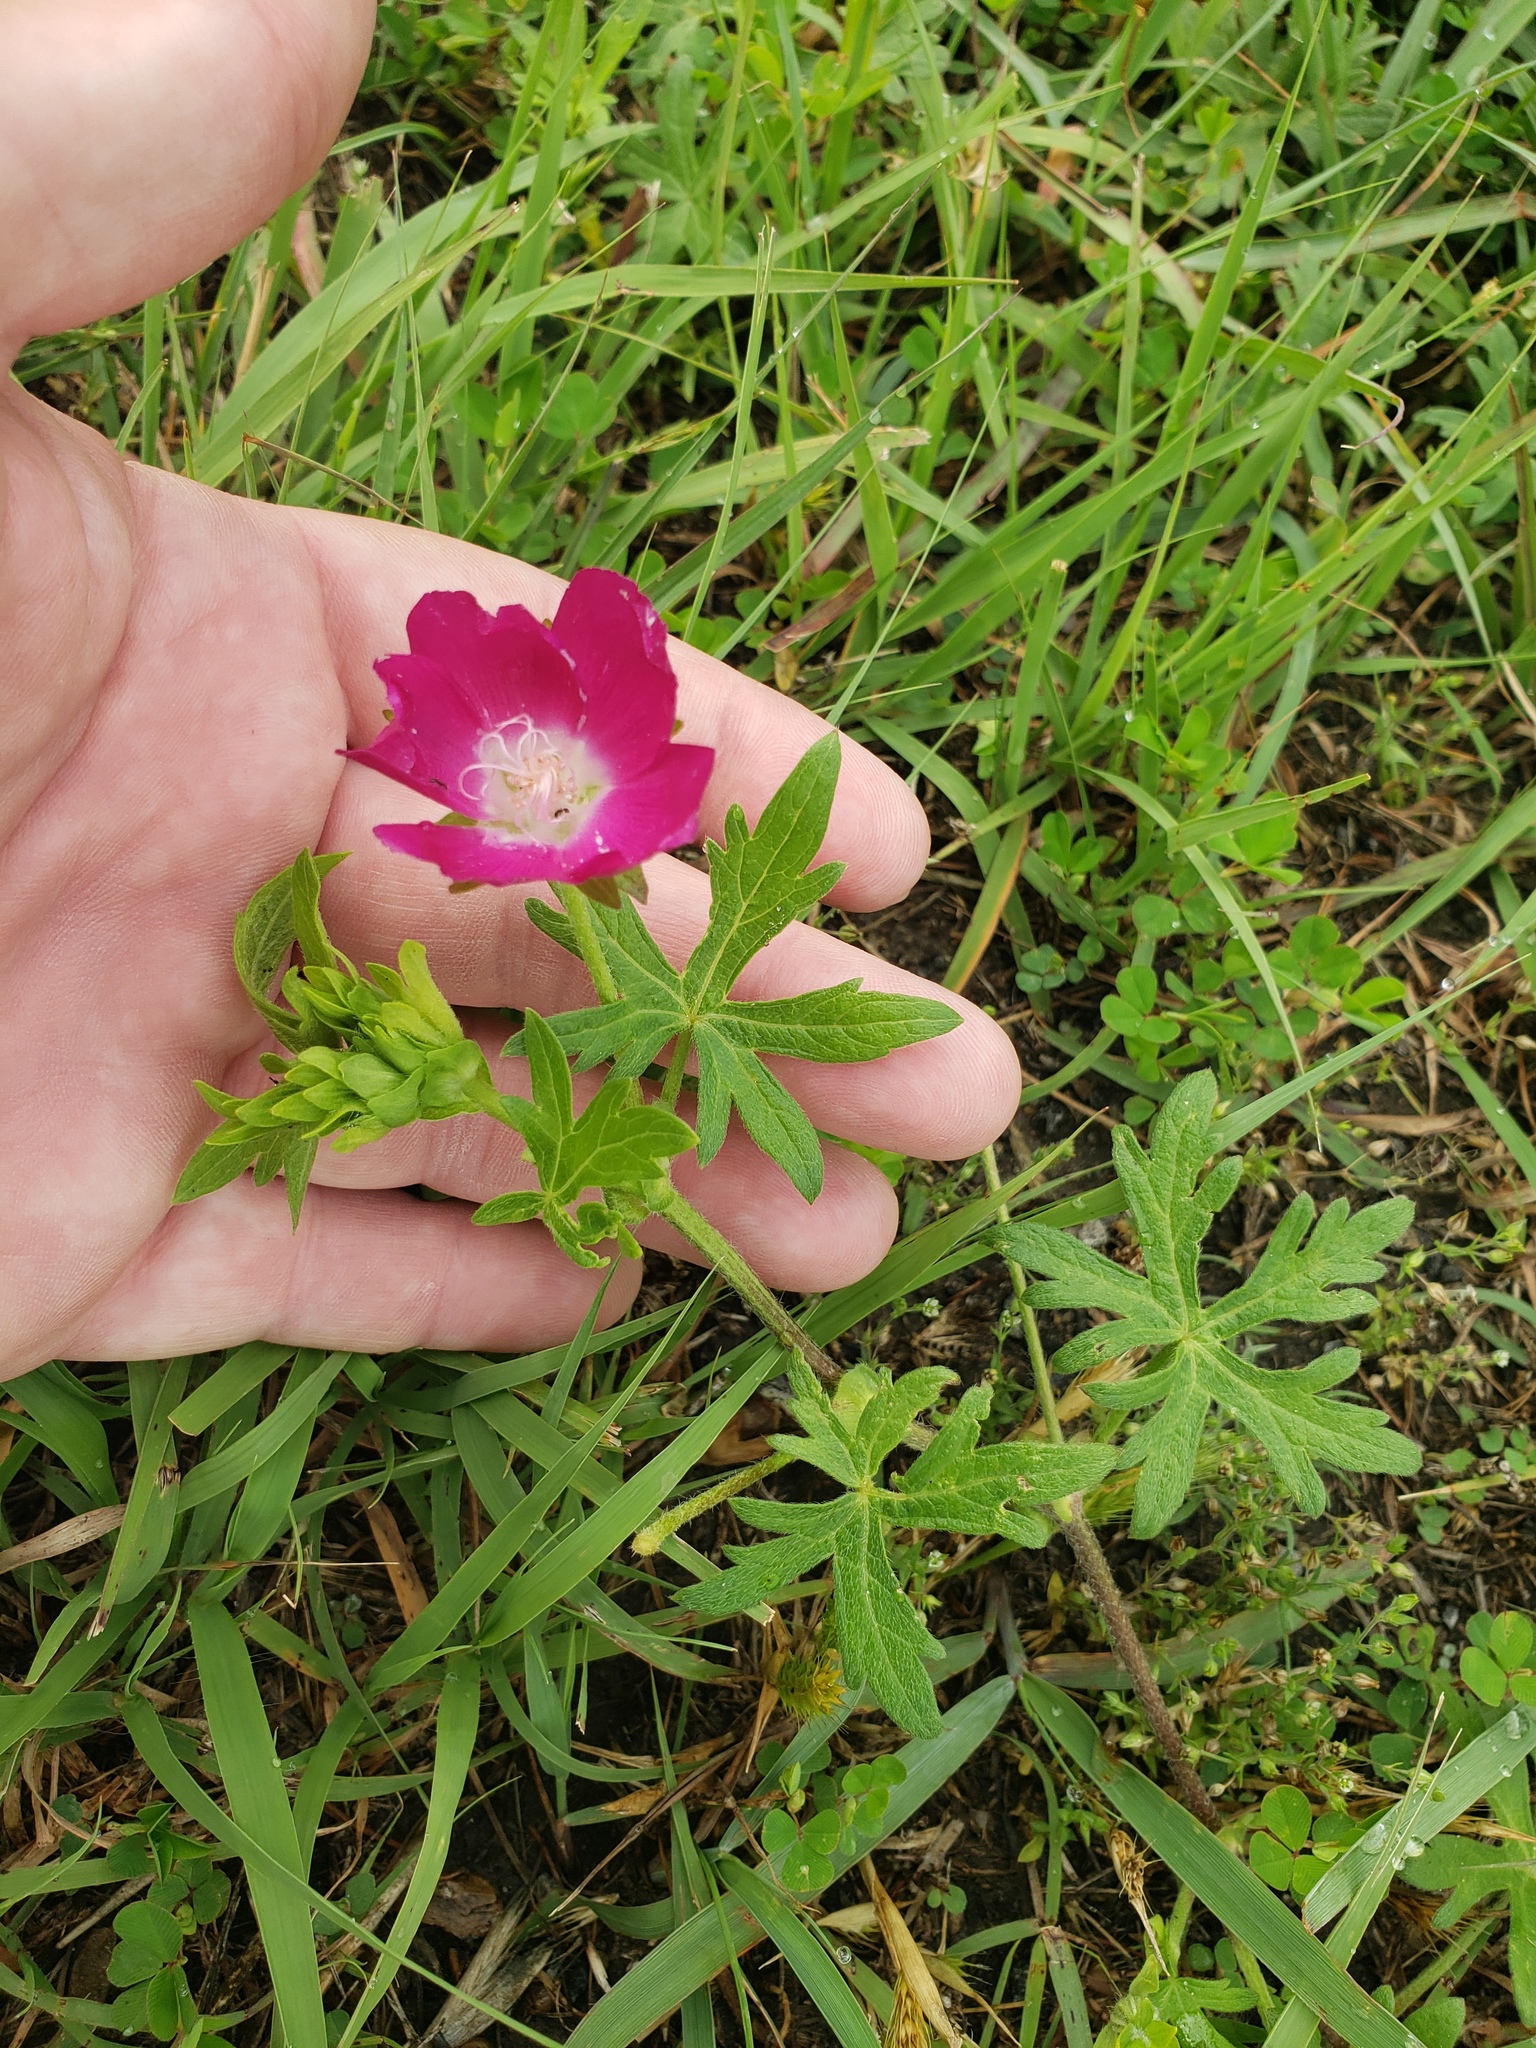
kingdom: Plantae
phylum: Tracheophyta
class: Magnoliopsida
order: Malvales
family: Malvaceae
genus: Callirhoe
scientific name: Callirhoe involucrata
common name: Purple poppy-mallow
